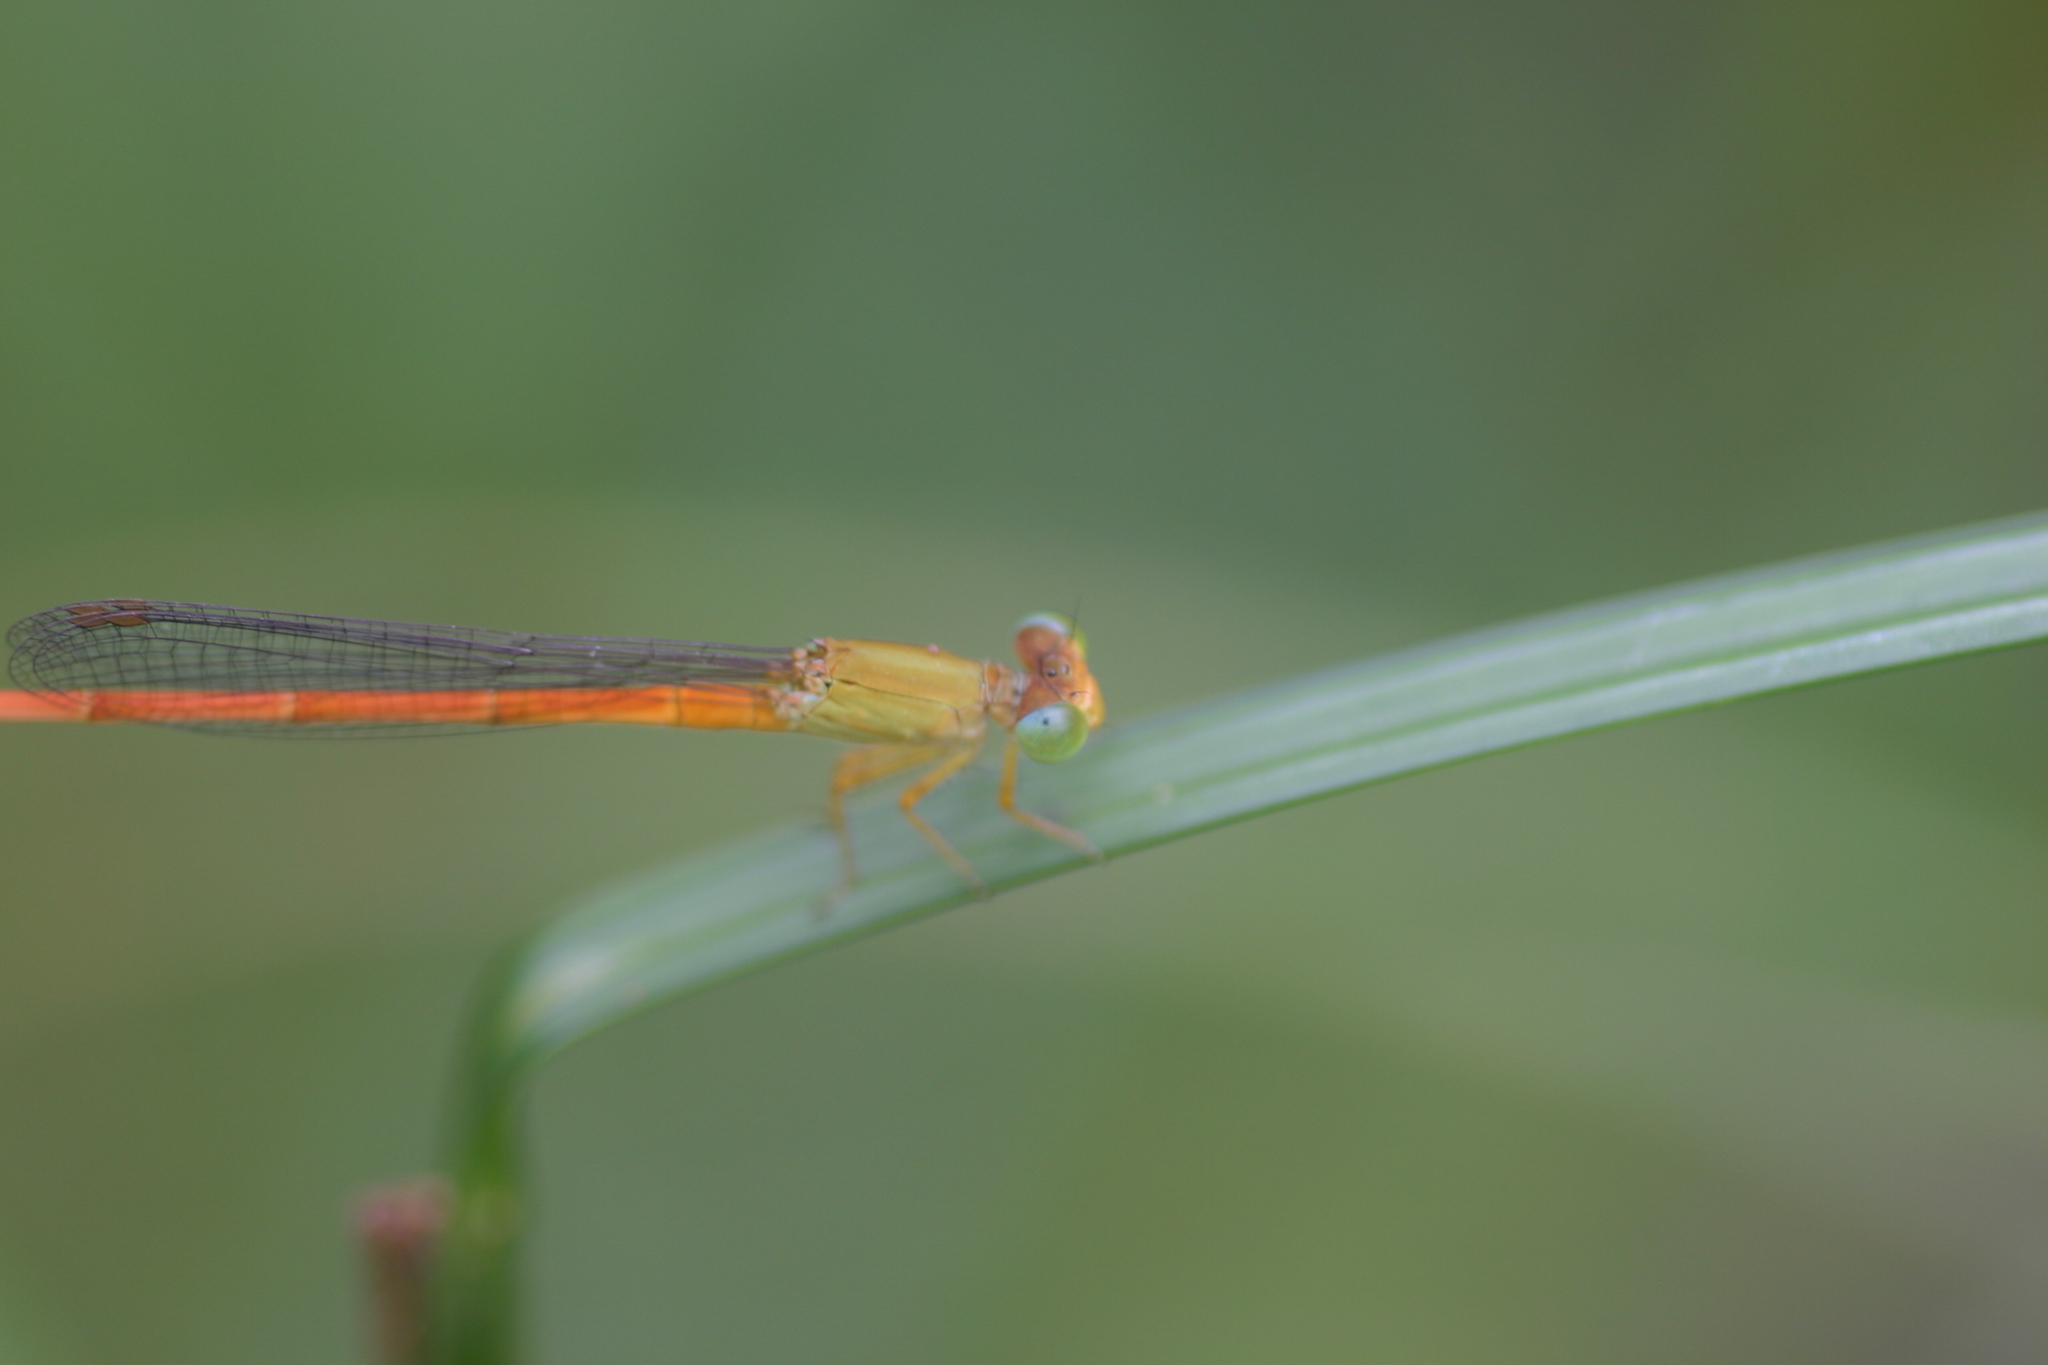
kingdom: Animalia
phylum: Arthropoda
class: Insecta
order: Odonata
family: Coenagrionidae
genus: Ceriagrion
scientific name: Ceriagrion rubiae
